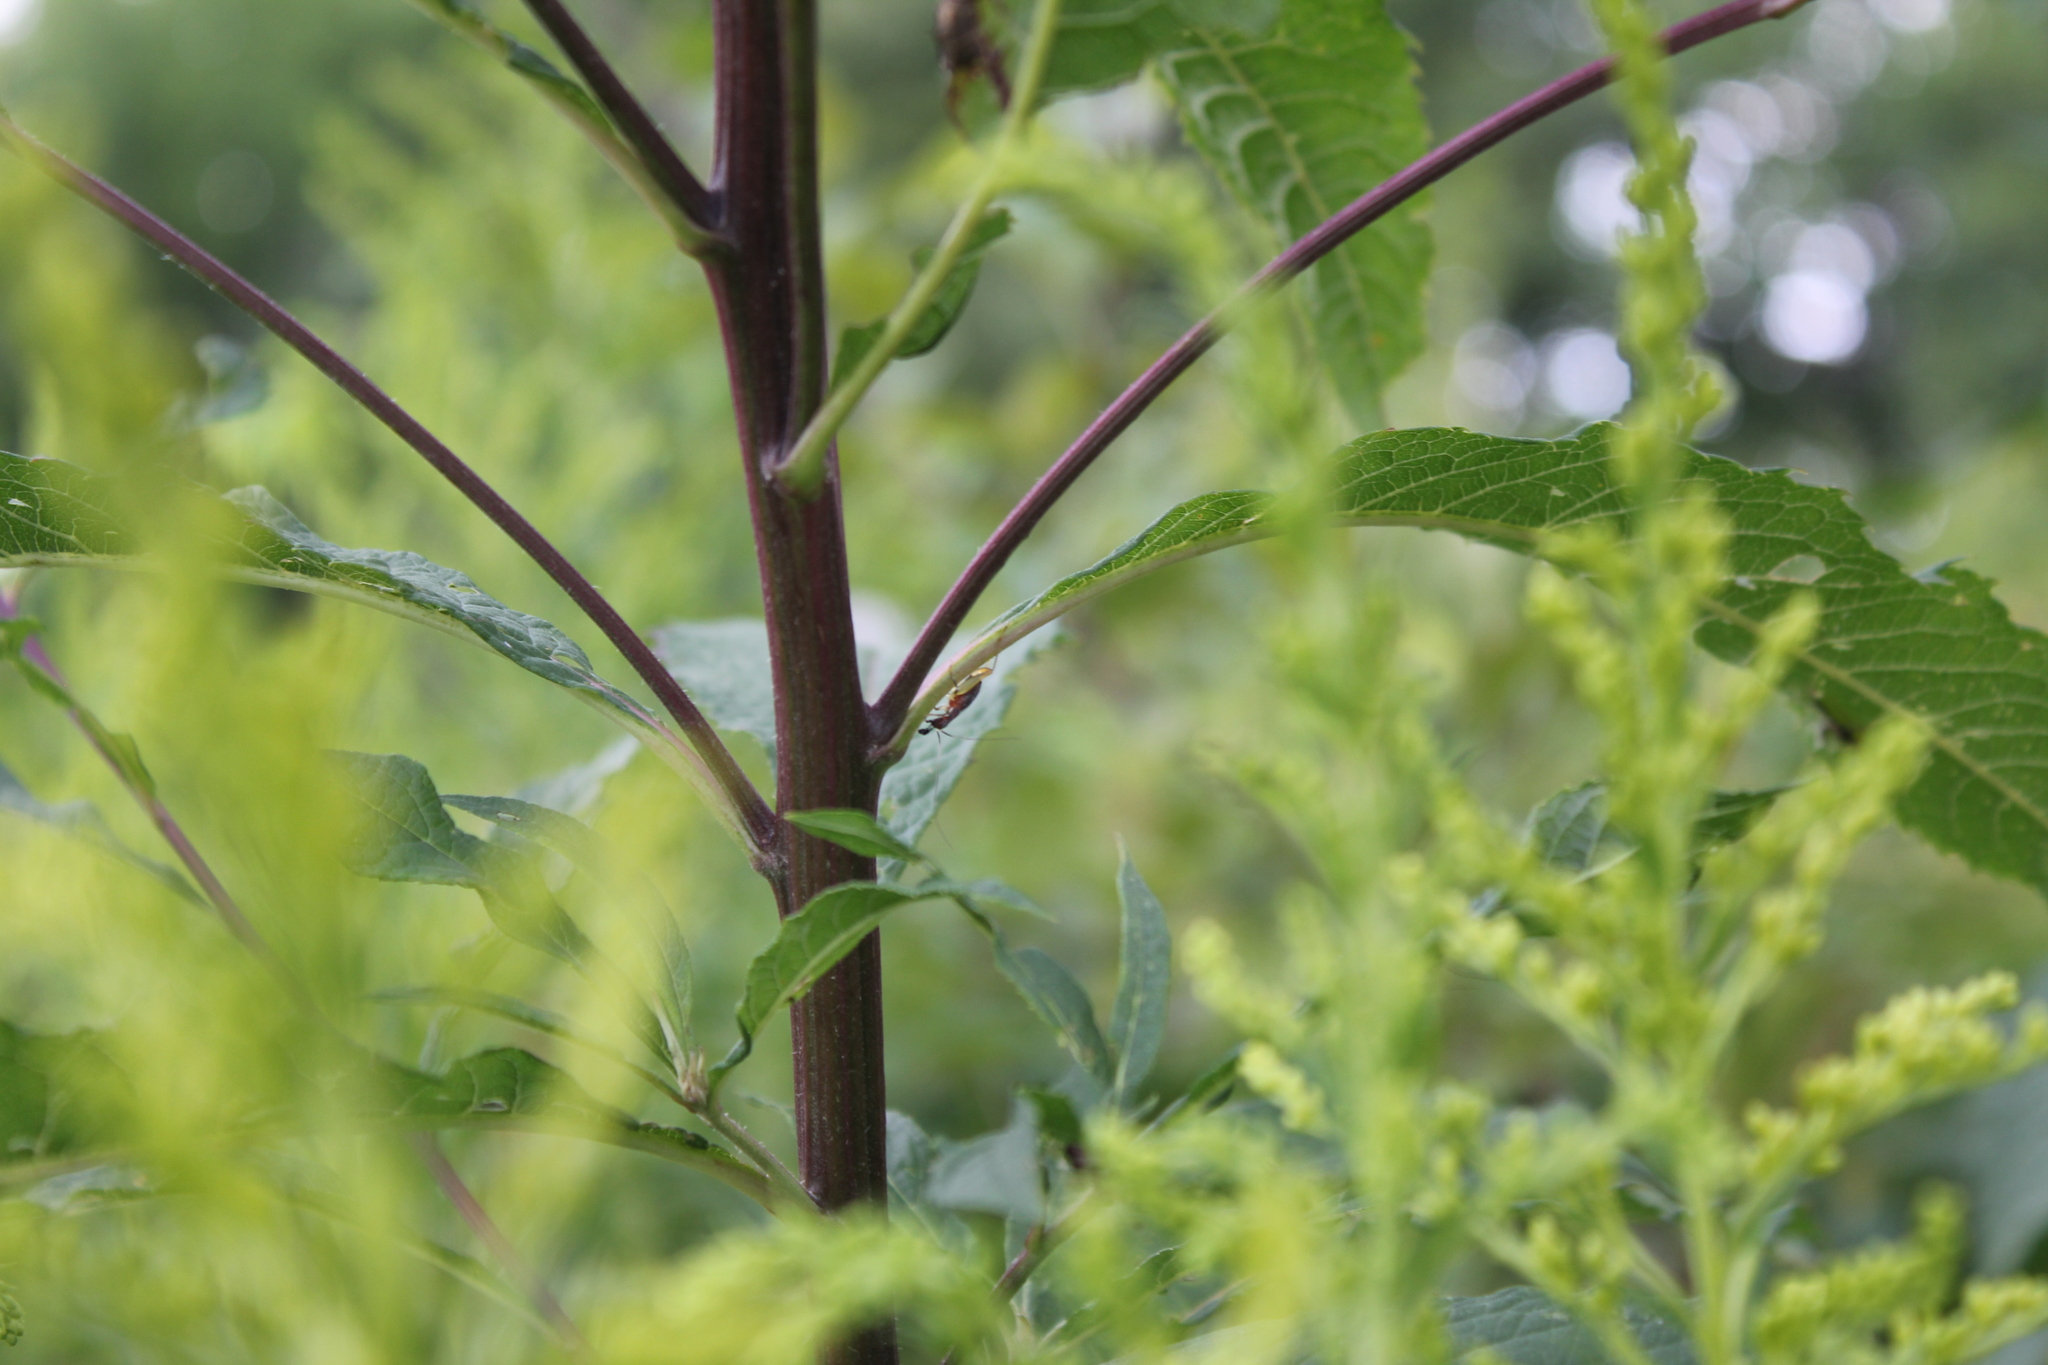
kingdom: Animalia
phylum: Arthropoda
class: Insecta
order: Orthoptera
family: Trigonidiidae
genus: Phyllopalpus
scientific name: Phyllopalpus pulchellus
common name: Handsome trig
